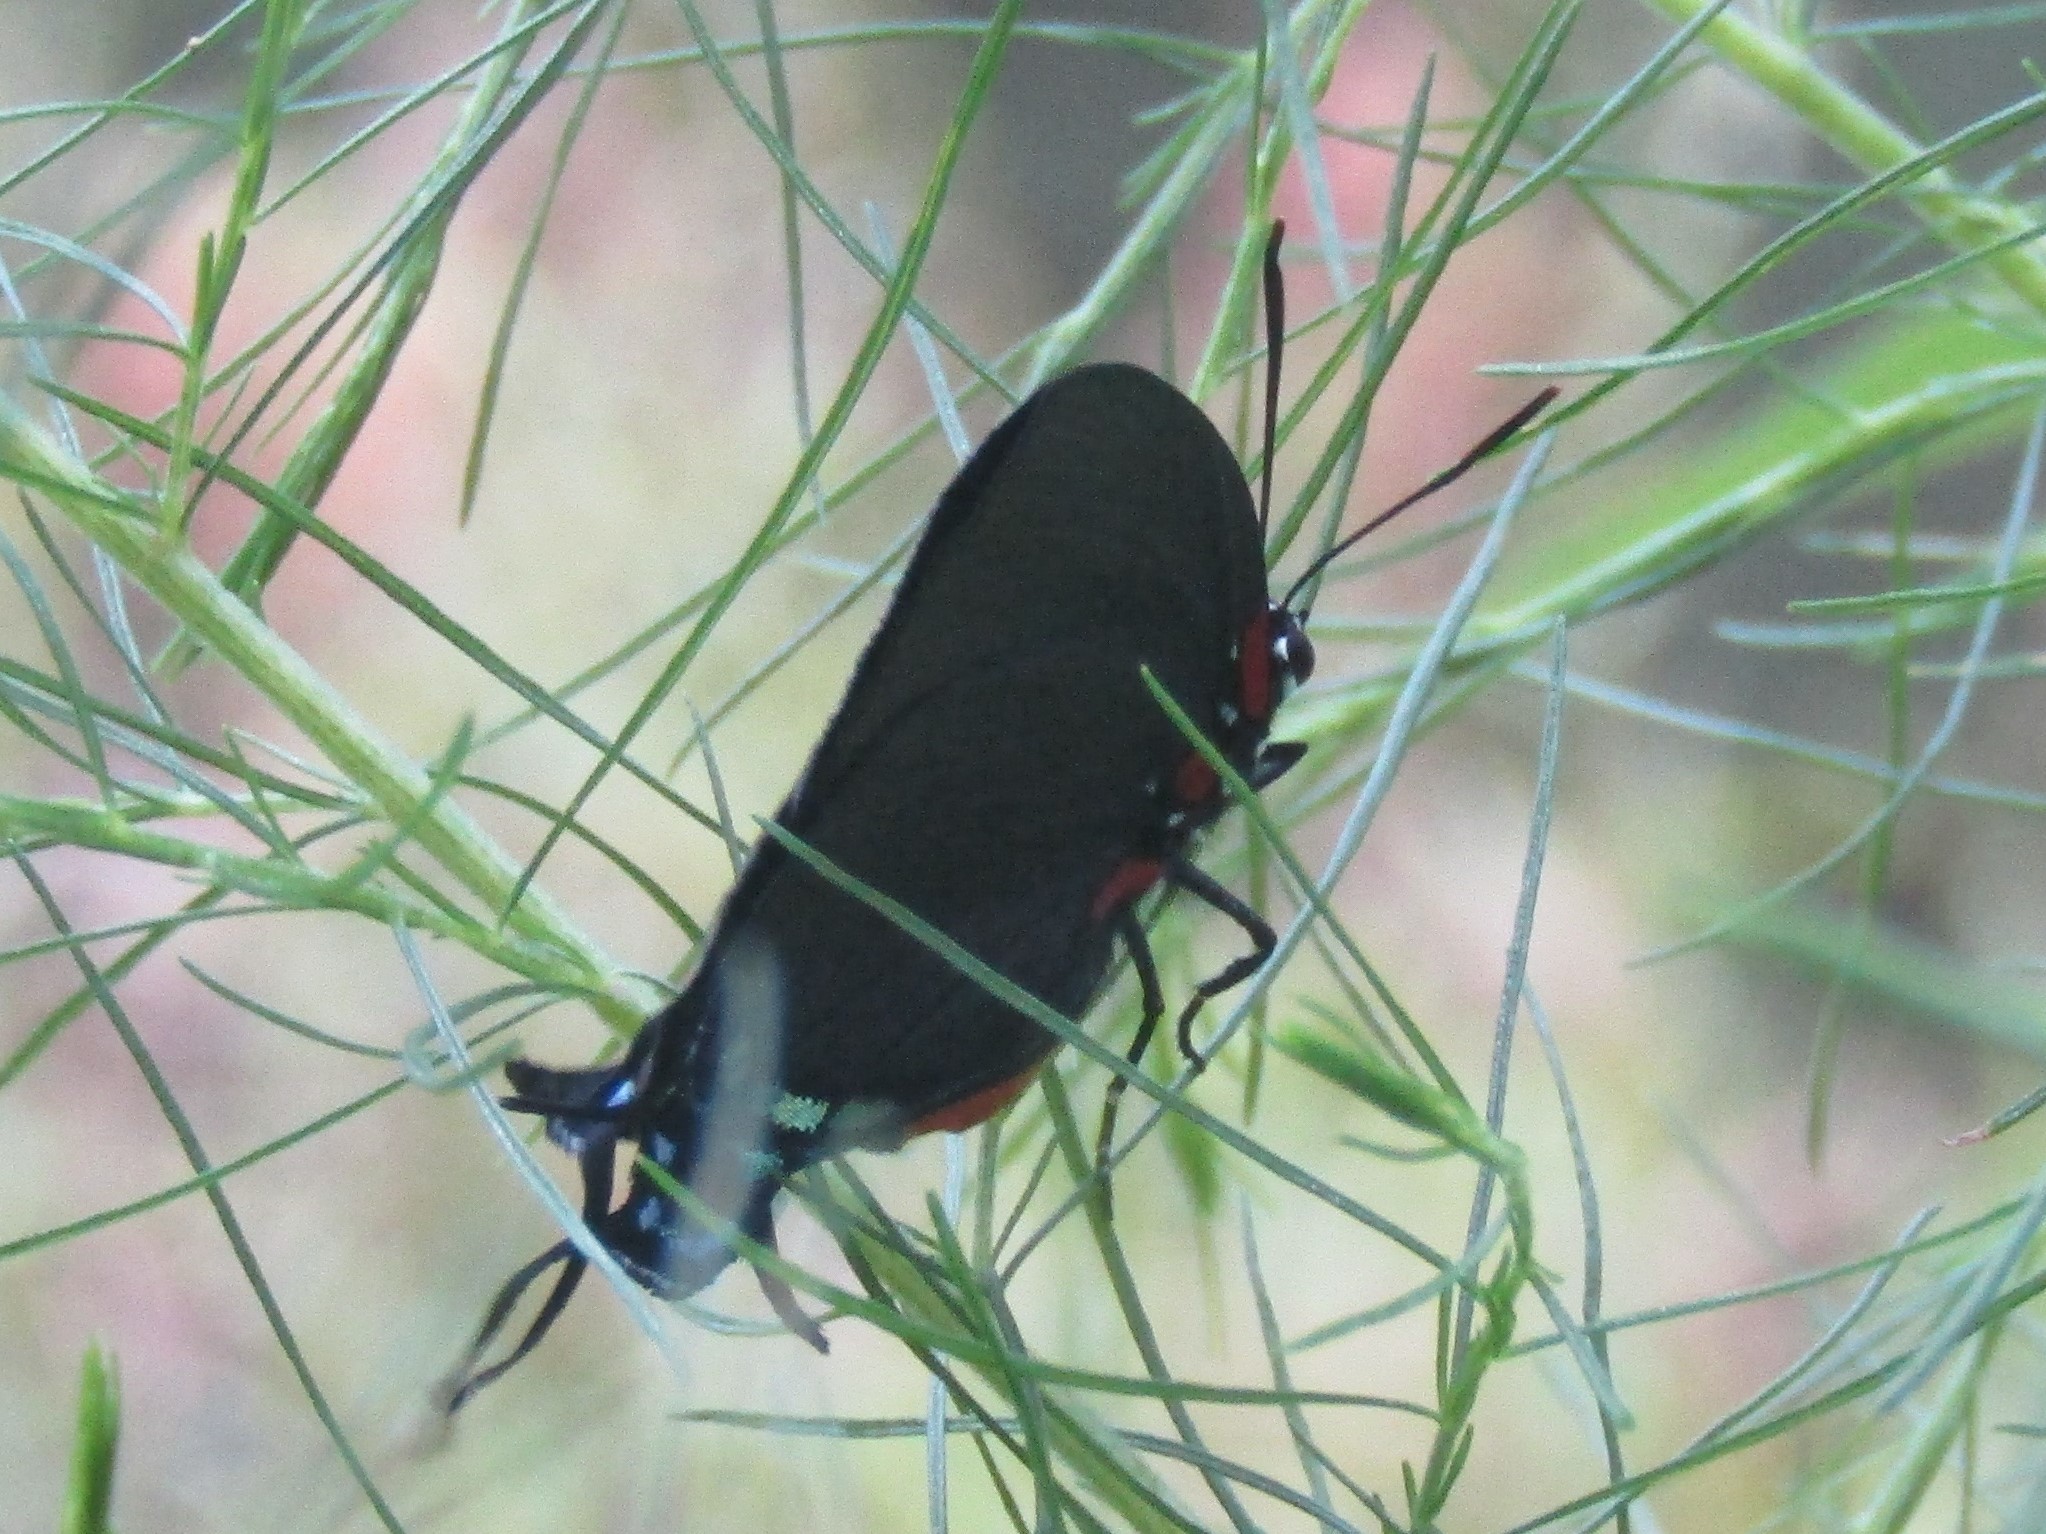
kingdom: Animalia
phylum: Arthropoda
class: Insecta
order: Lepidoptera
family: Lycaenidae
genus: Atlides
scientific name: Atlides halesus
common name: Great purple hairstreak
